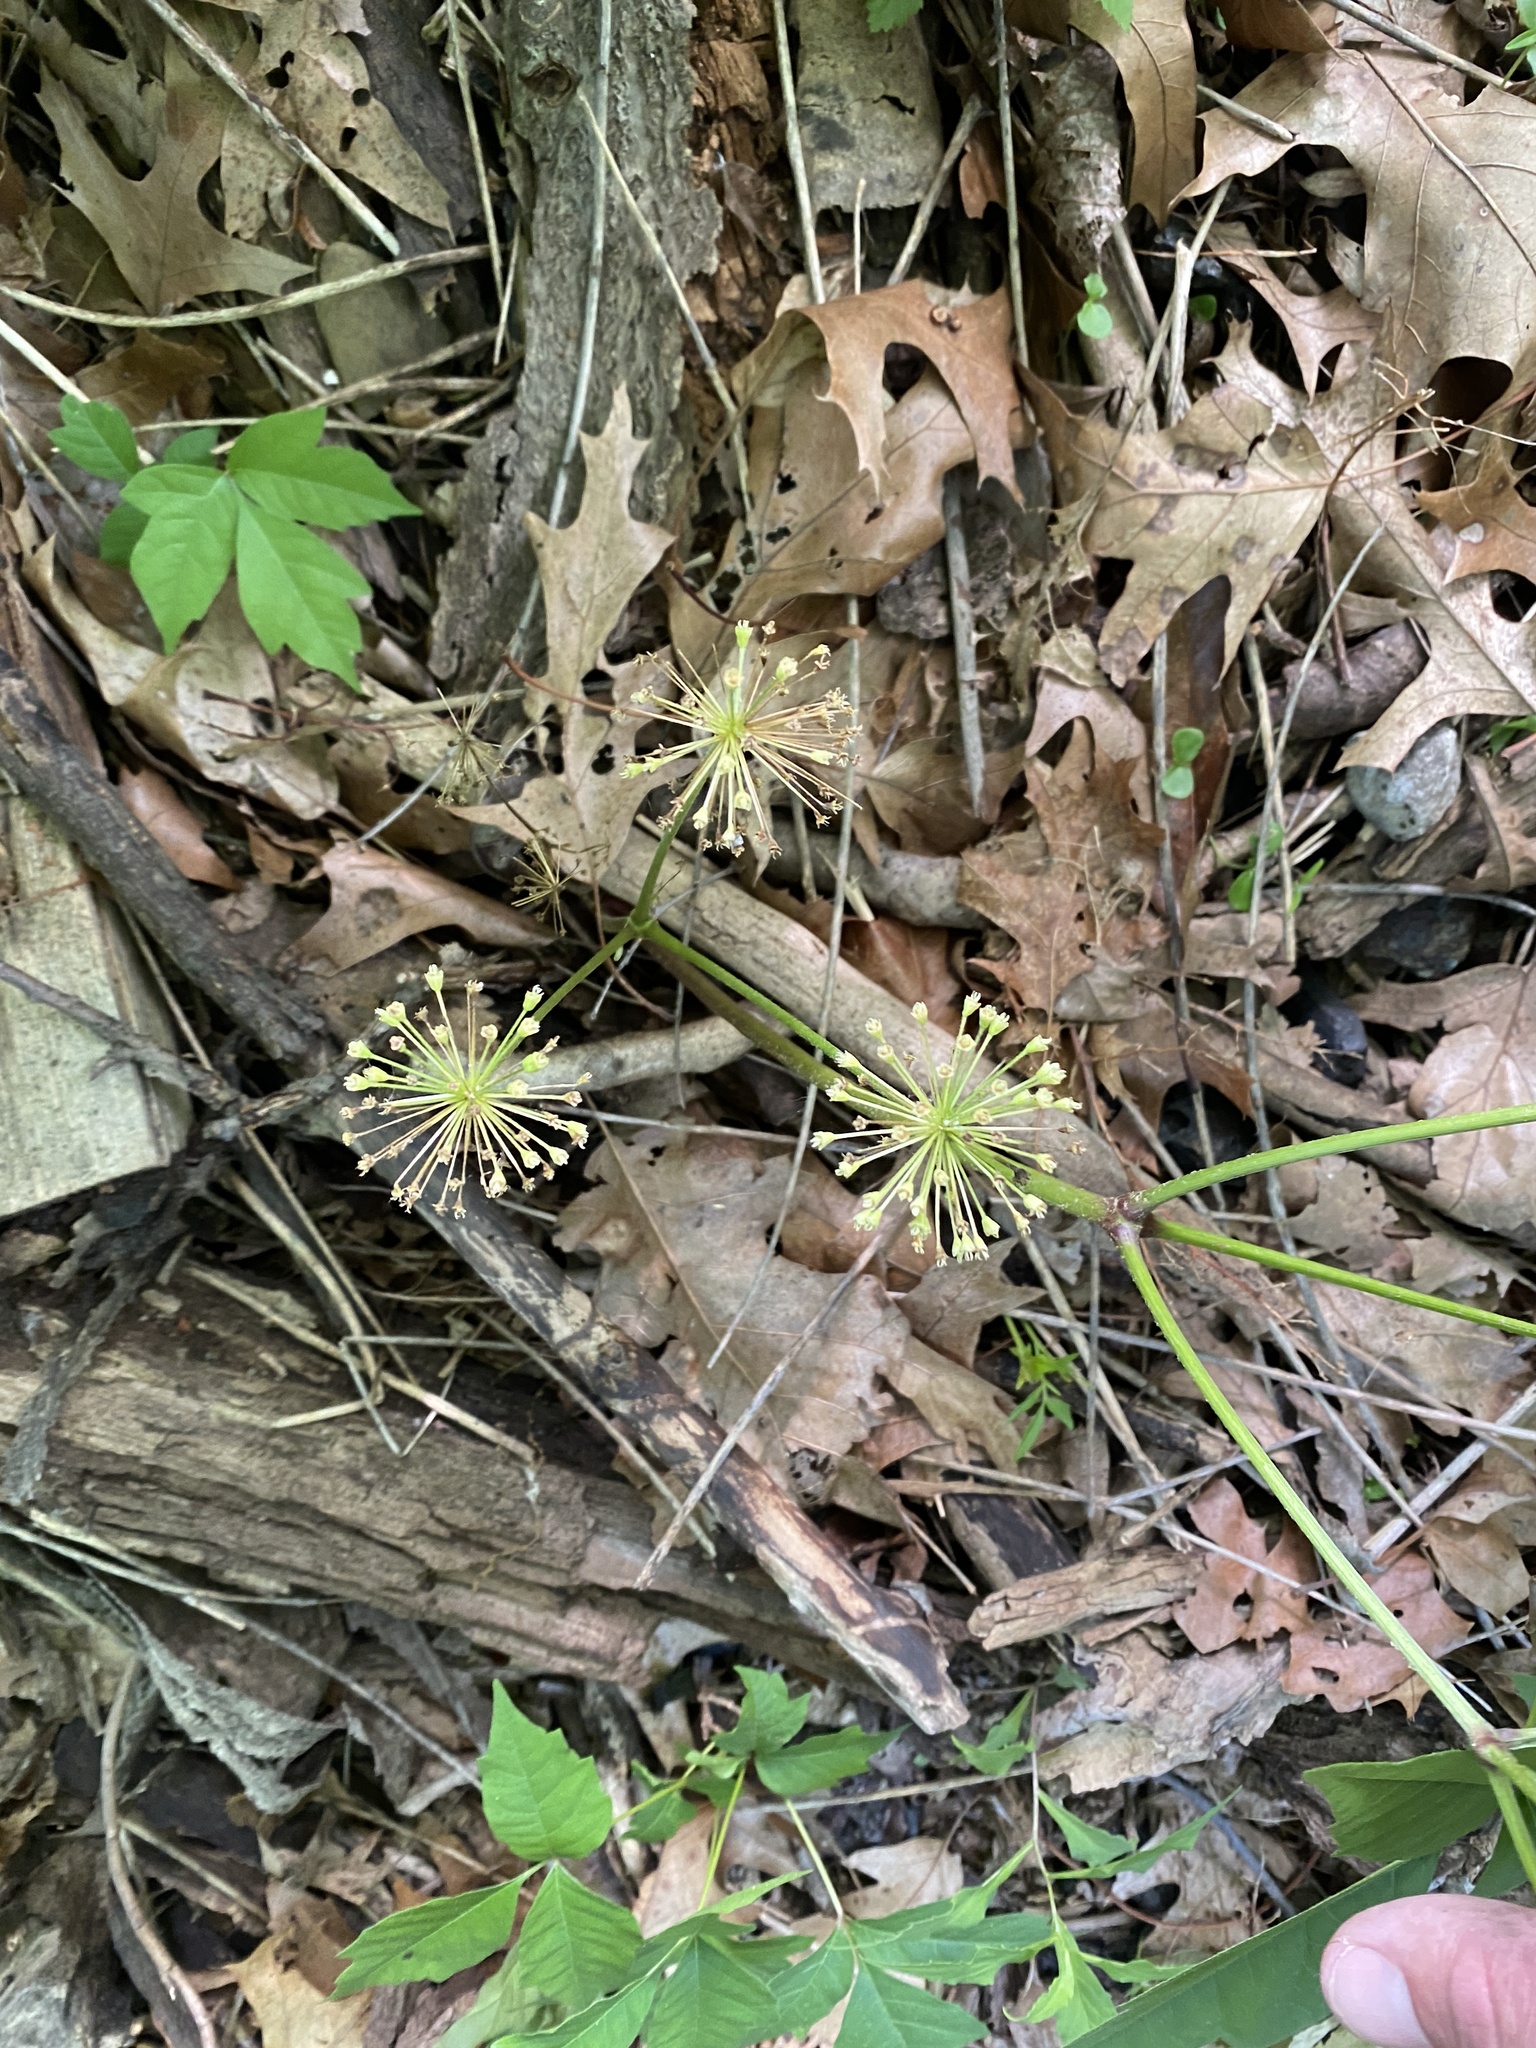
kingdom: Plantae
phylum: Tracheophyta
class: Magnoliopsida
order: Apiales
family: Araliaceae
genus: Aralia
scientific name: Aralia nudicaulis
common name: Wild sarsaparilla
